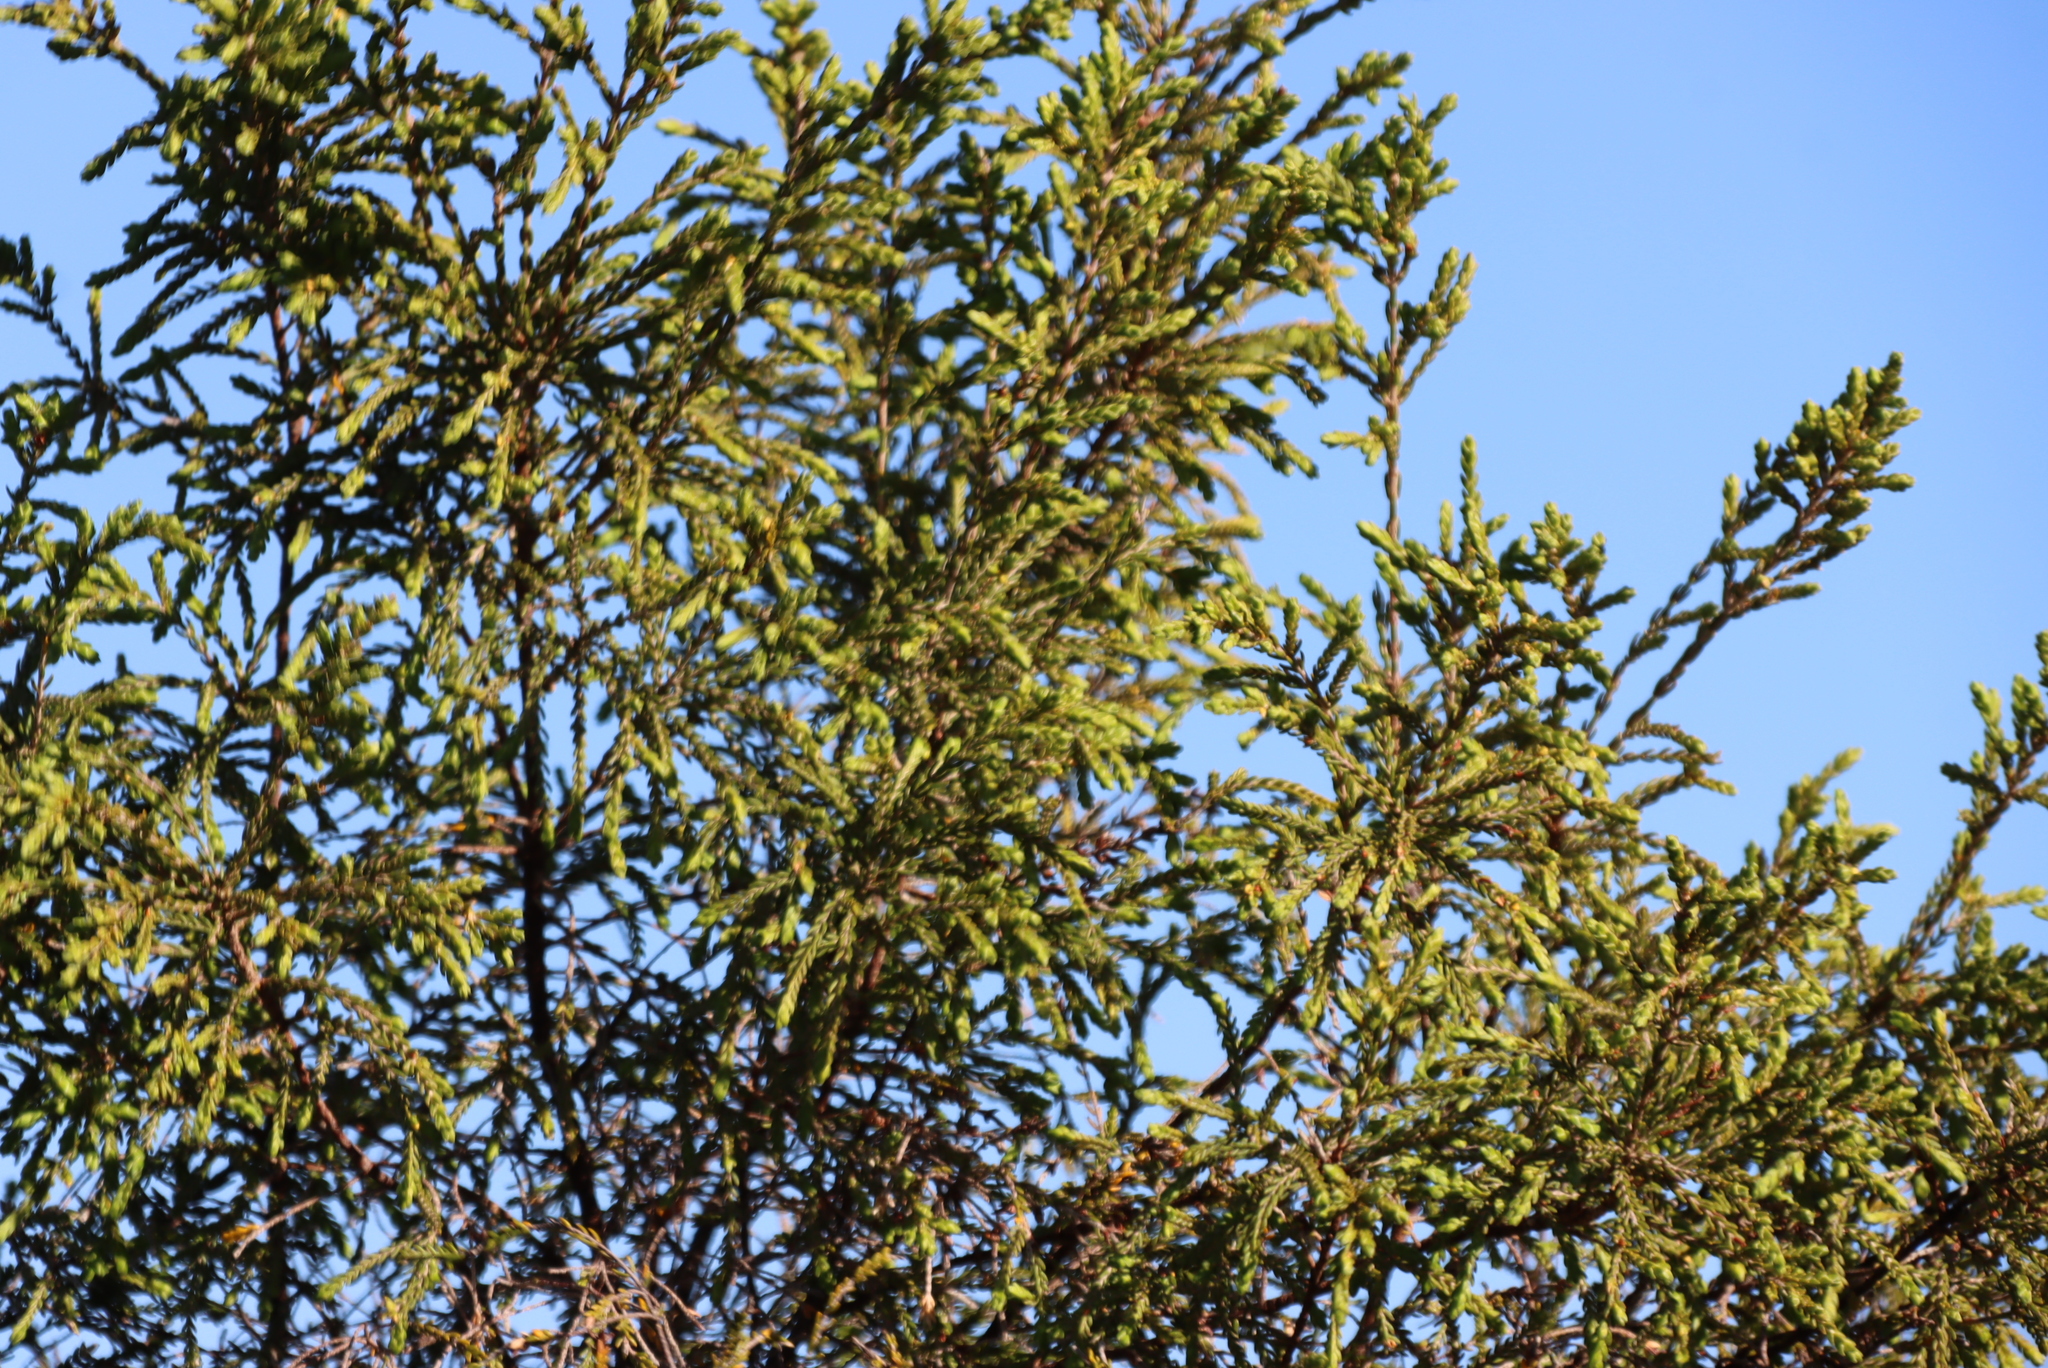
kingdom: Plantae
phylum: Tracheophyta
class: Magnoliopsida
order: Malvales
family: Thymelaeaceae
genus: Passerina
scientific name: Passerina falcifolia
